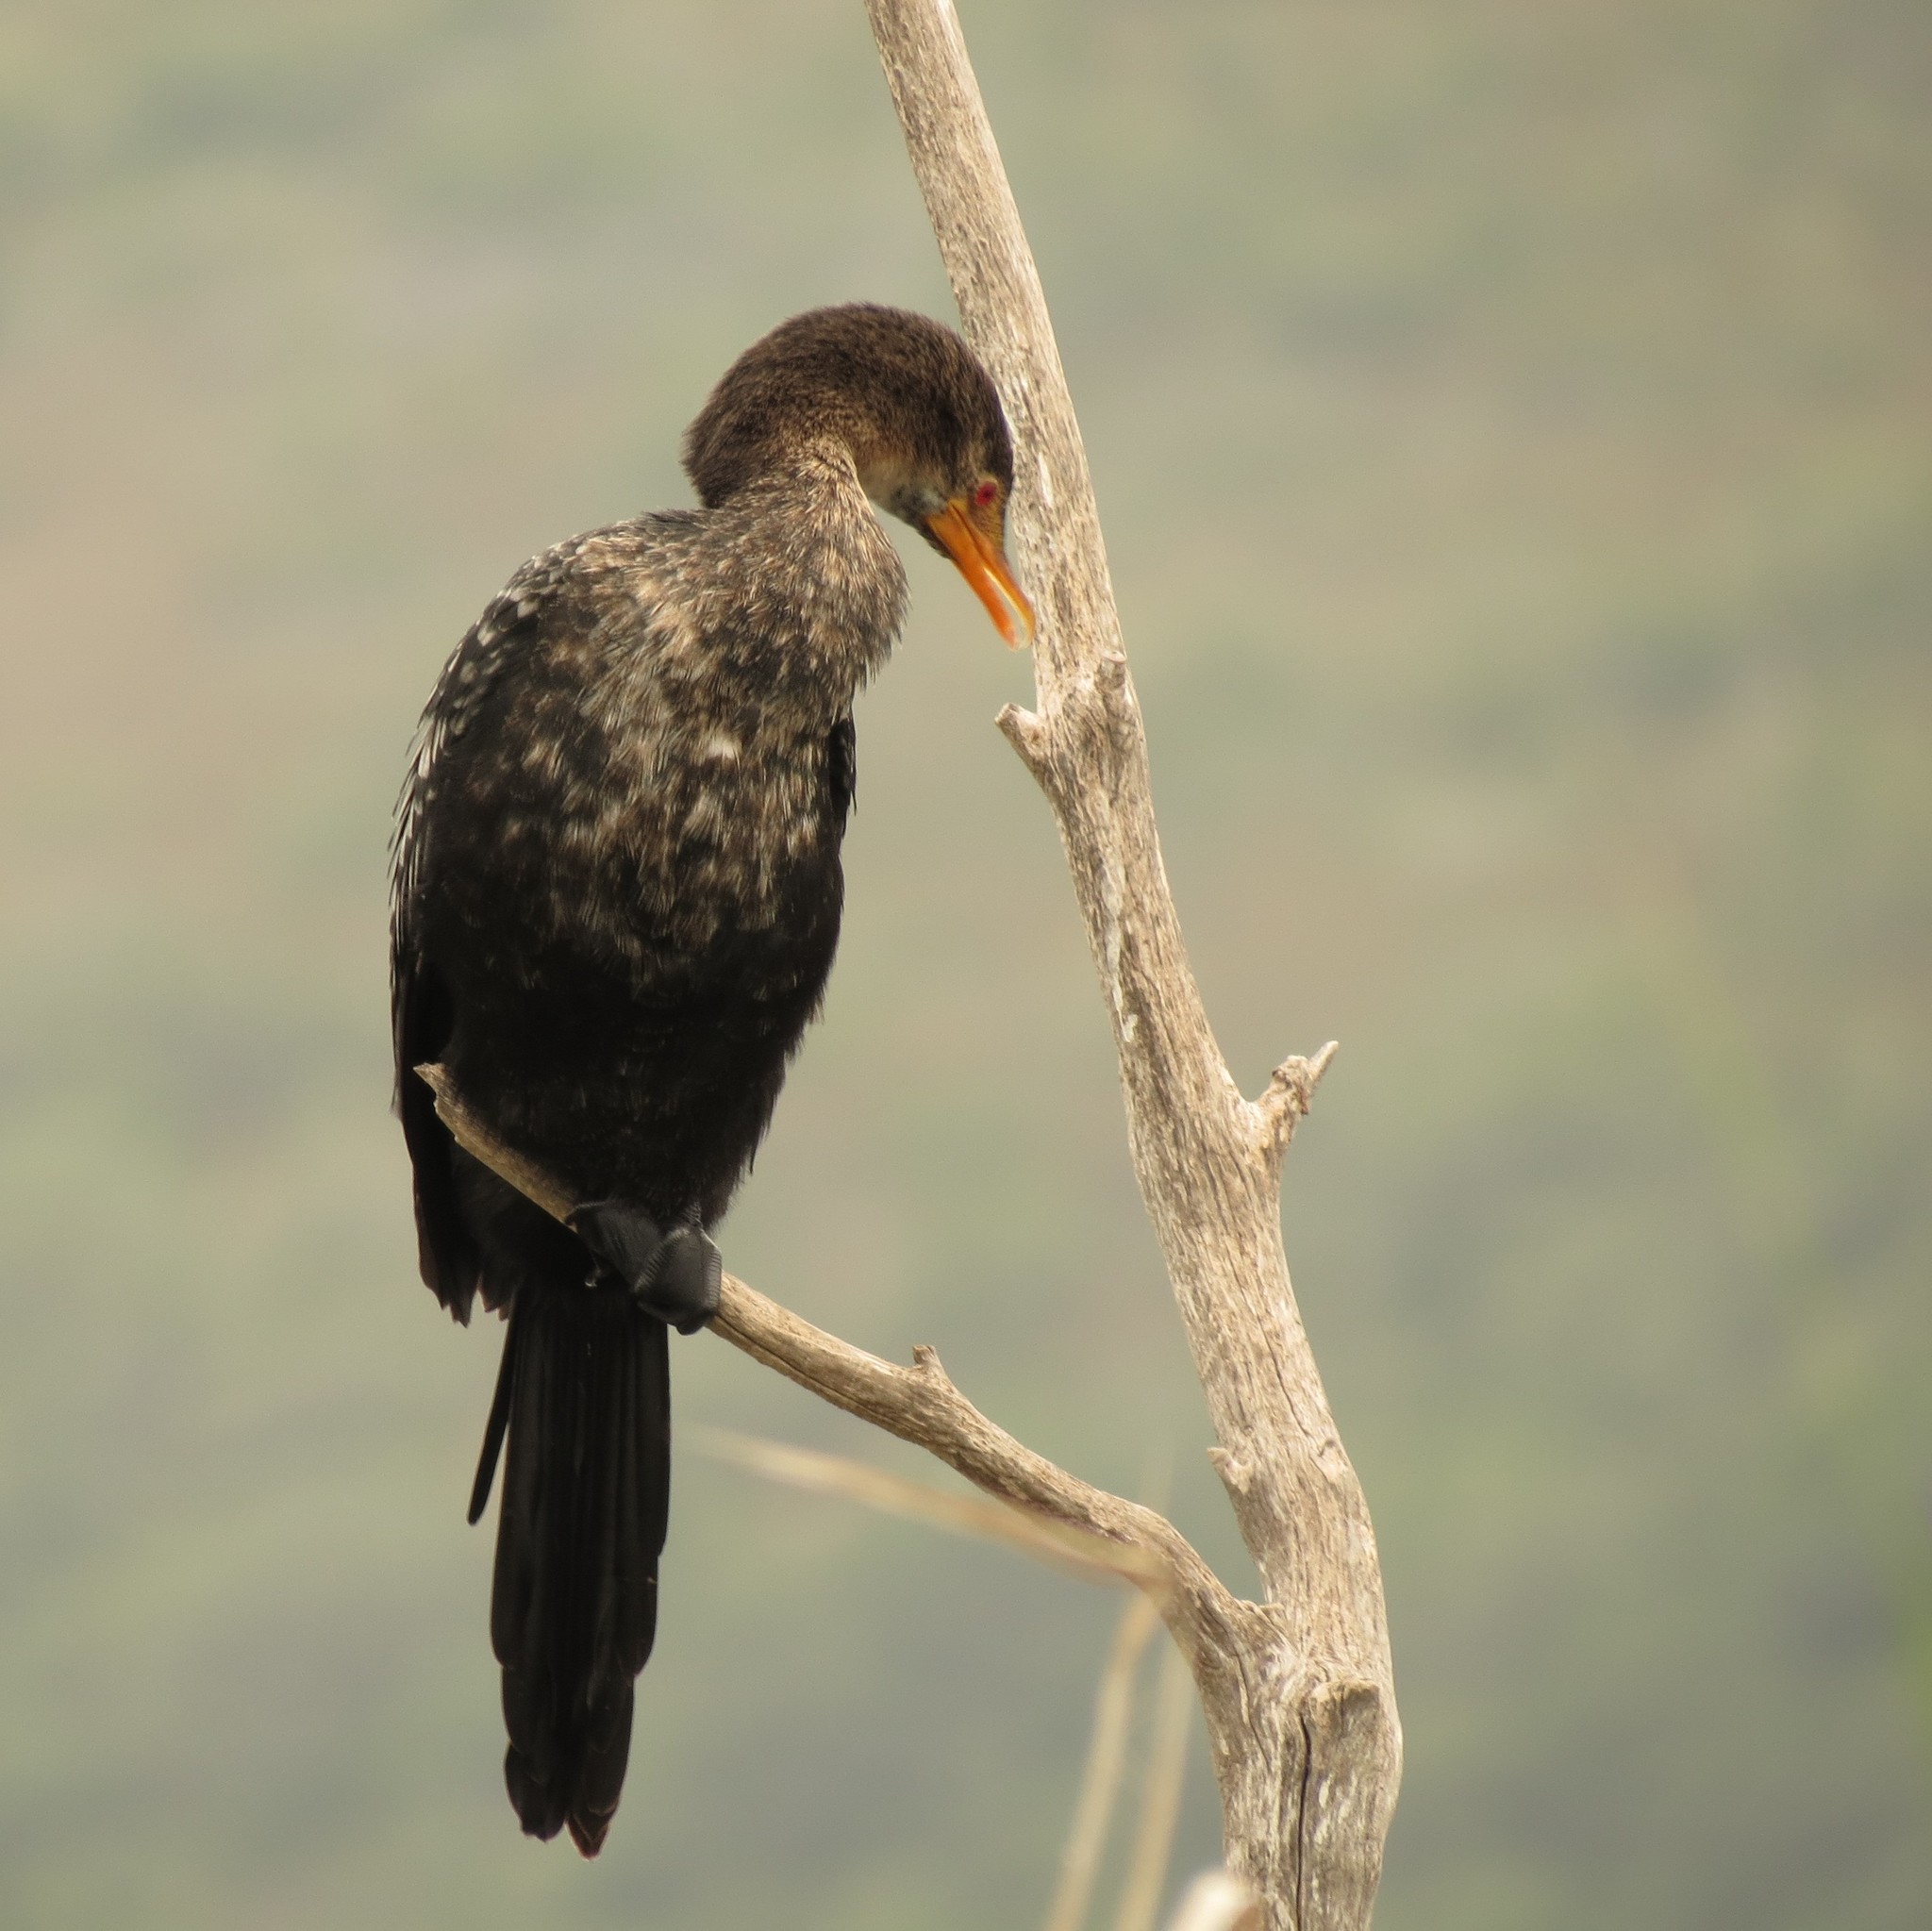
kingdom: Animalia
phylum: Chordata
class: Aves
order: Suliformes
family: Phalacrocoracidae
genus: Microcarbo
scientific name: Microcarbo africanus
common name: Long-tailed cormorant
